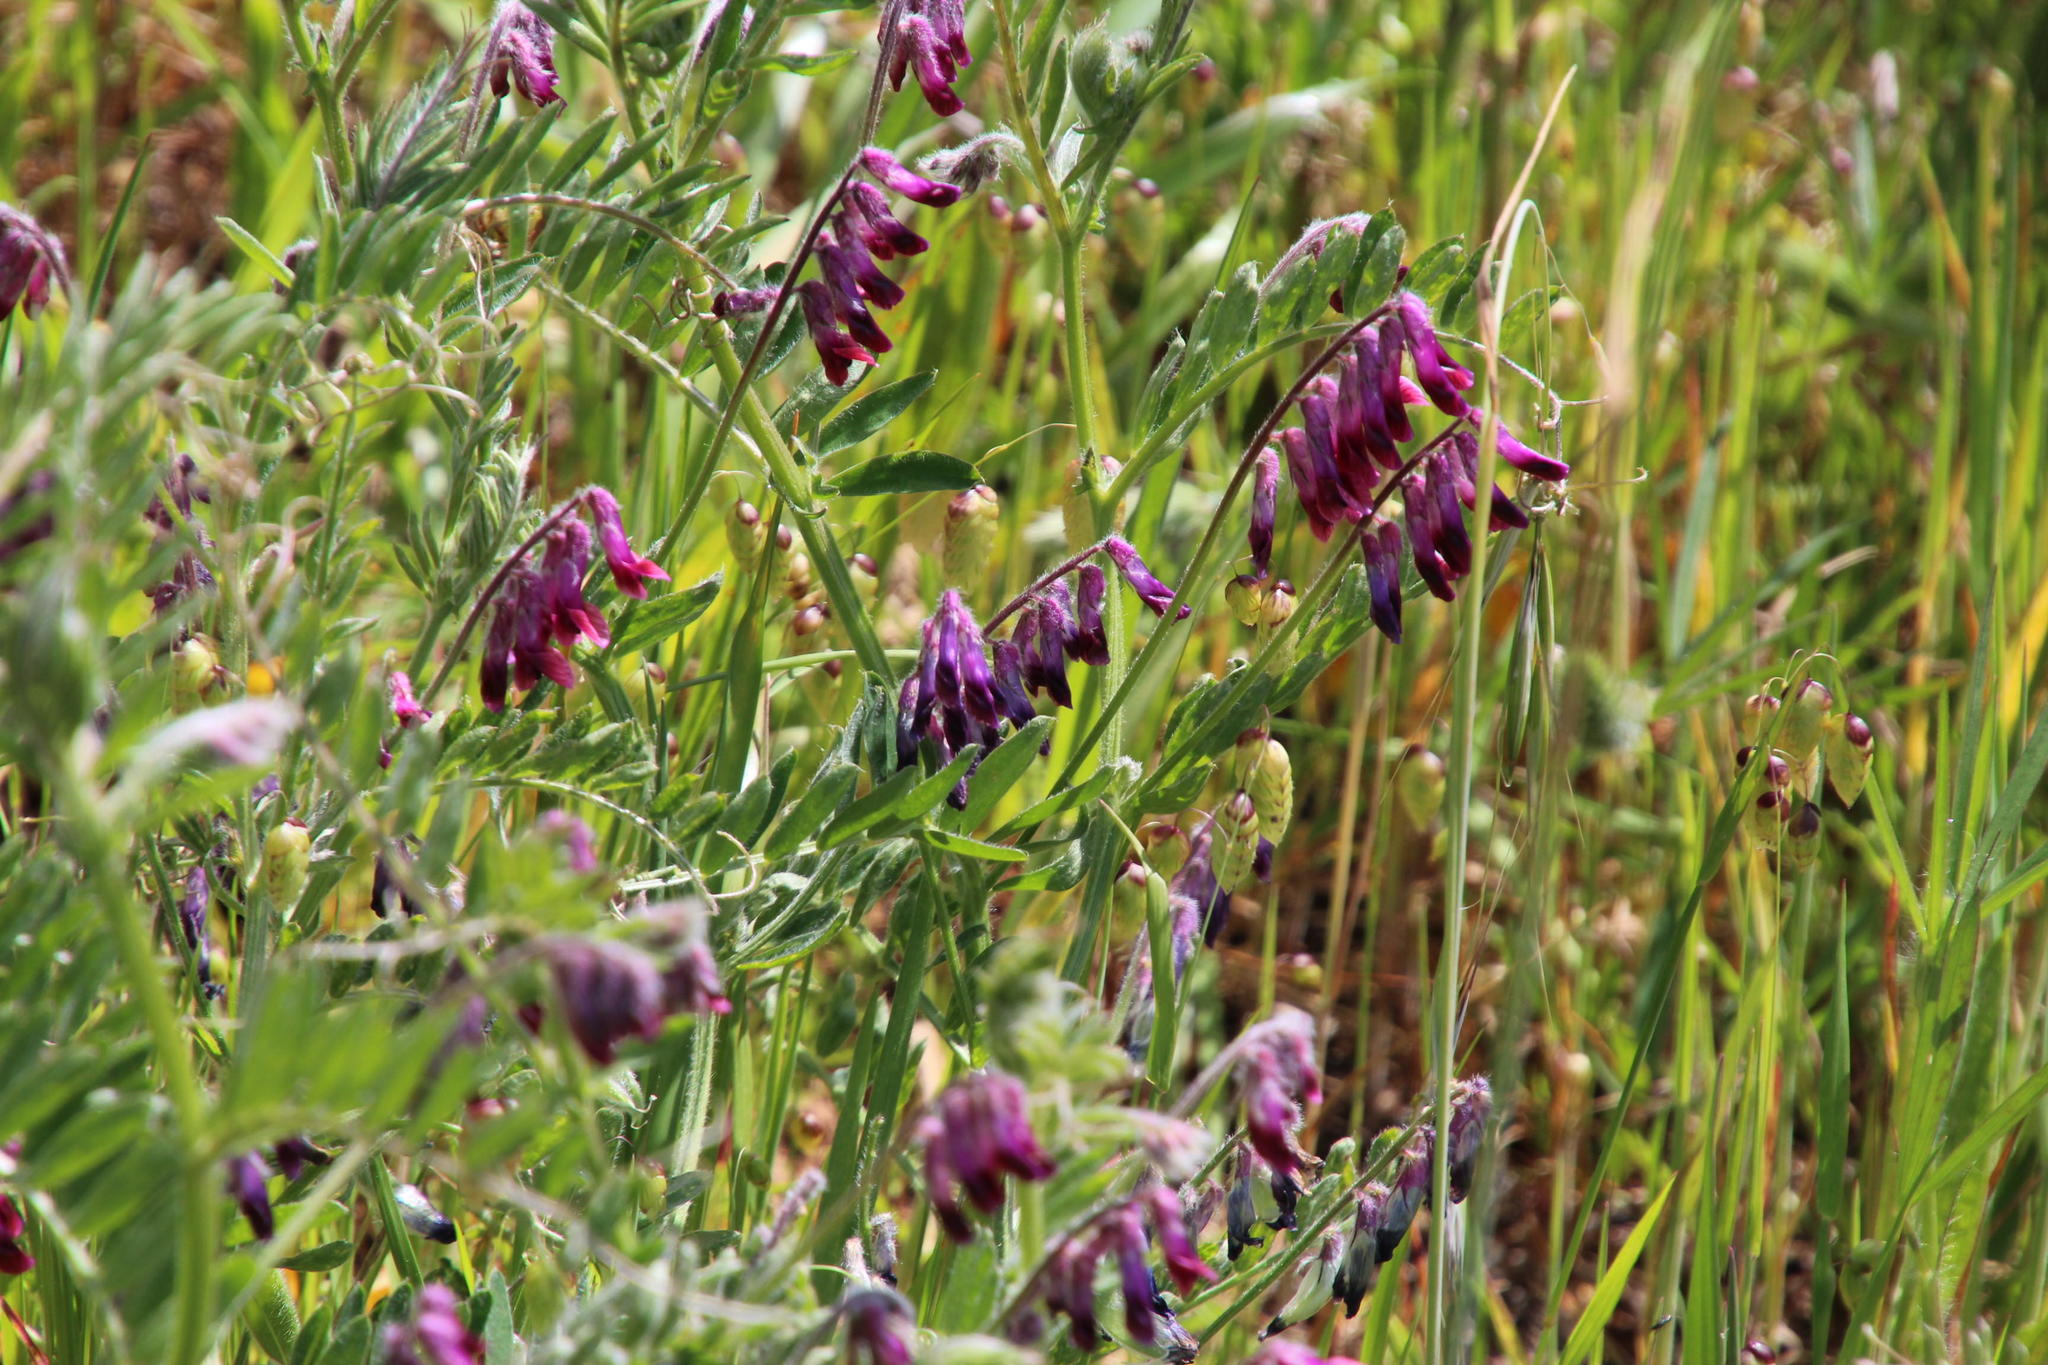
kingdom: Plantae
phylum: Tracheophyta
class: Magnoliopsida
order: Fabales
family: Fabaceae
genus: Vicia
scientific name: Vicia benghalensis
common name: Purple vetch
